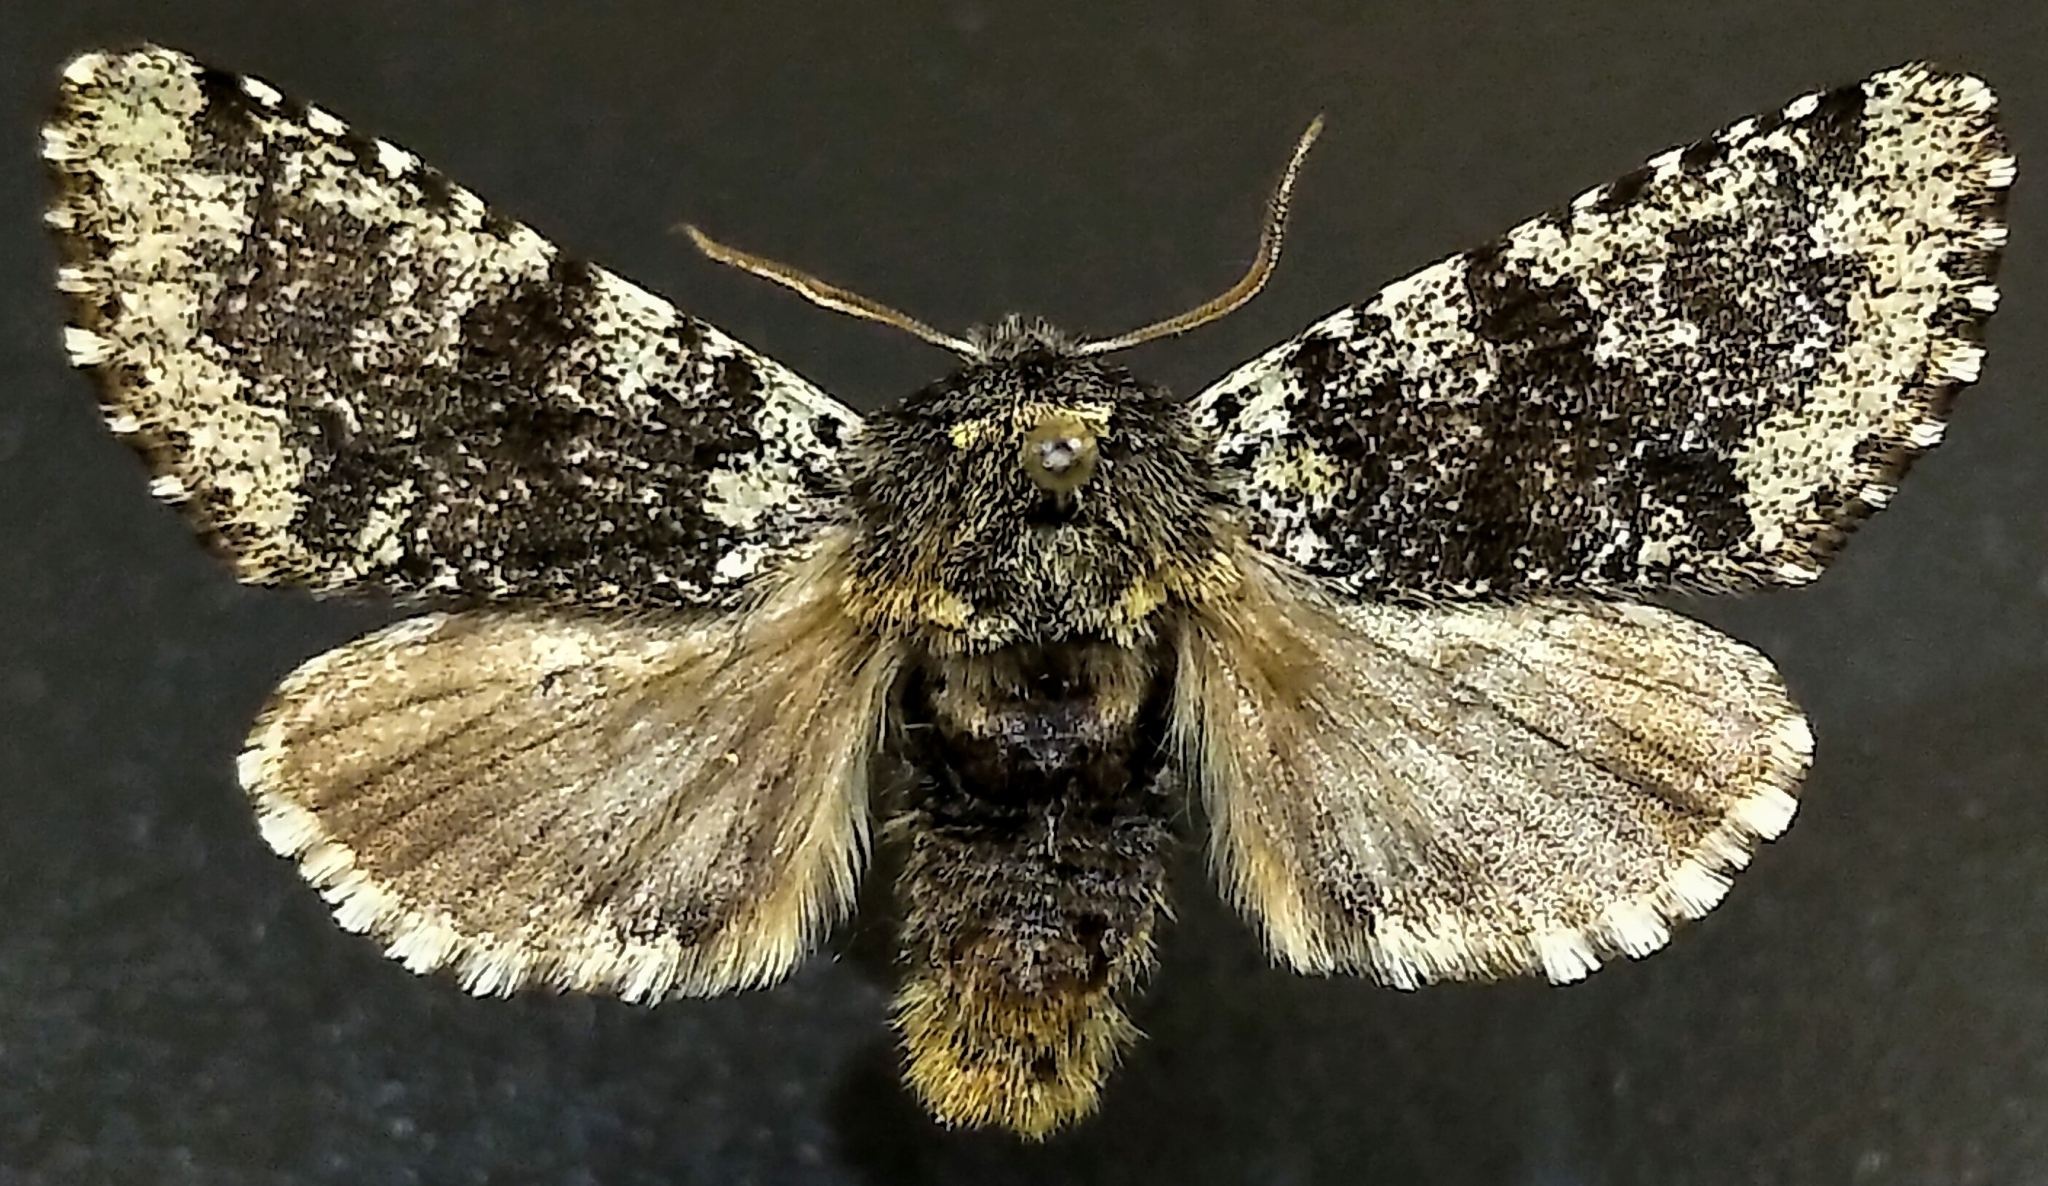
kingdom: Animalia
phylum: Arthropoda
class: Insecta
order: Lepidoptera
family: Noctuidae
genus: Feralia
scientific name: Feralia major
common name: Major sallow
